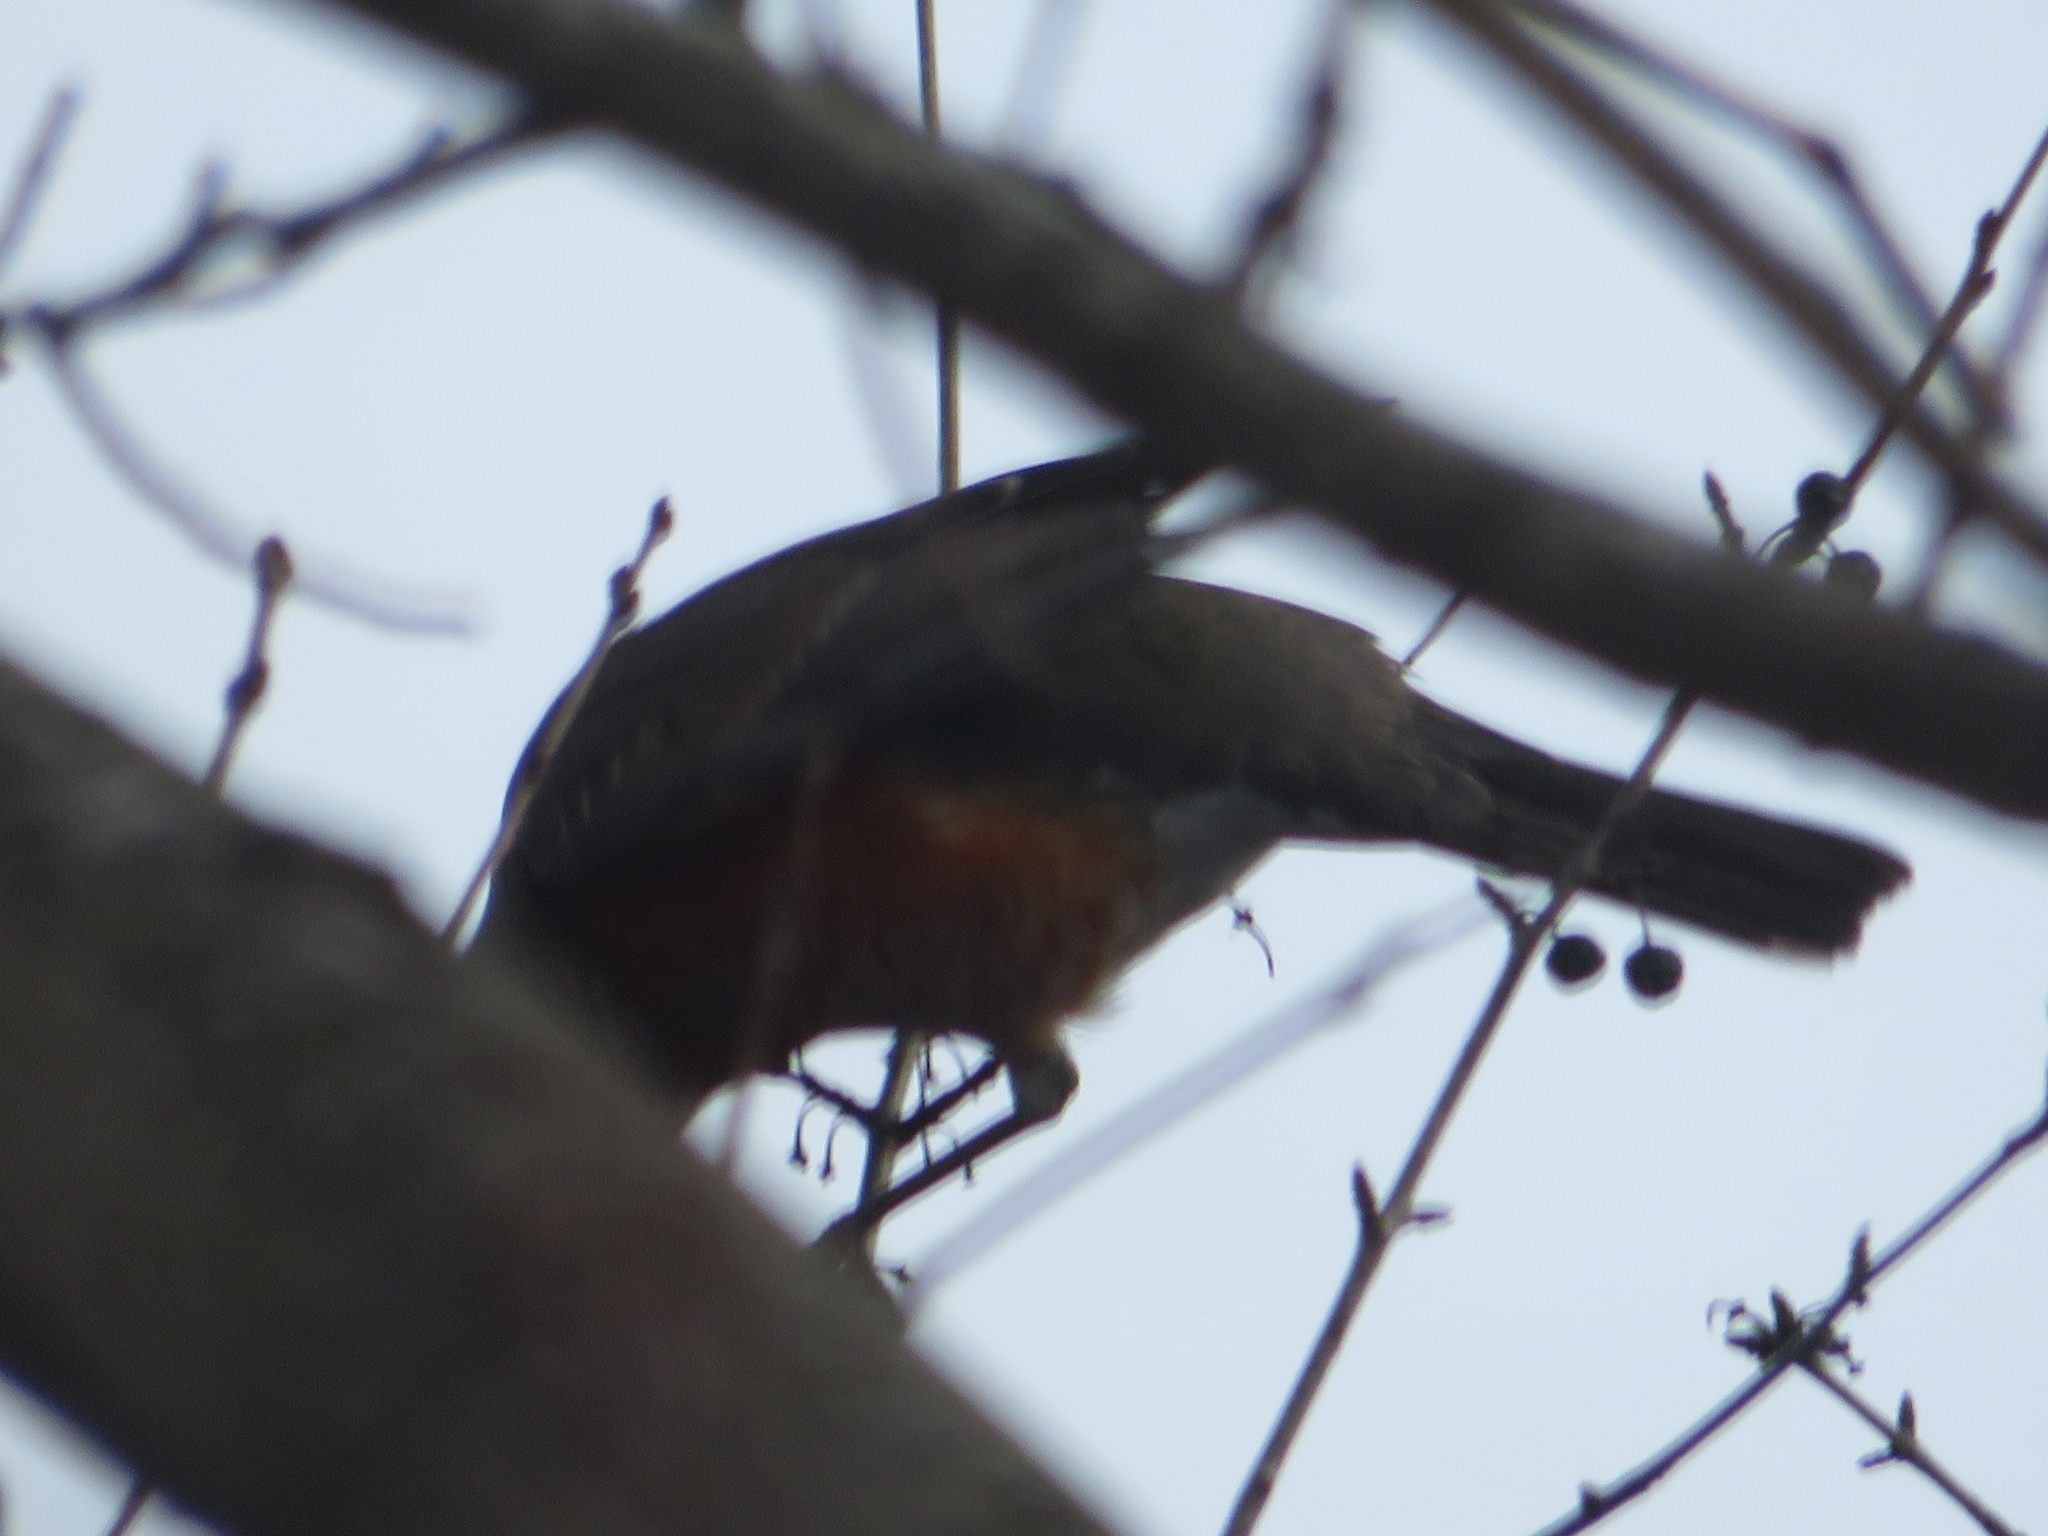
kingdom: Animalia
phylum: Chordata
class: Aves
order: Passeriformes
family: Turdidae
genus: Turdus
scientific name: Turdus migratorius
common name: American robin
